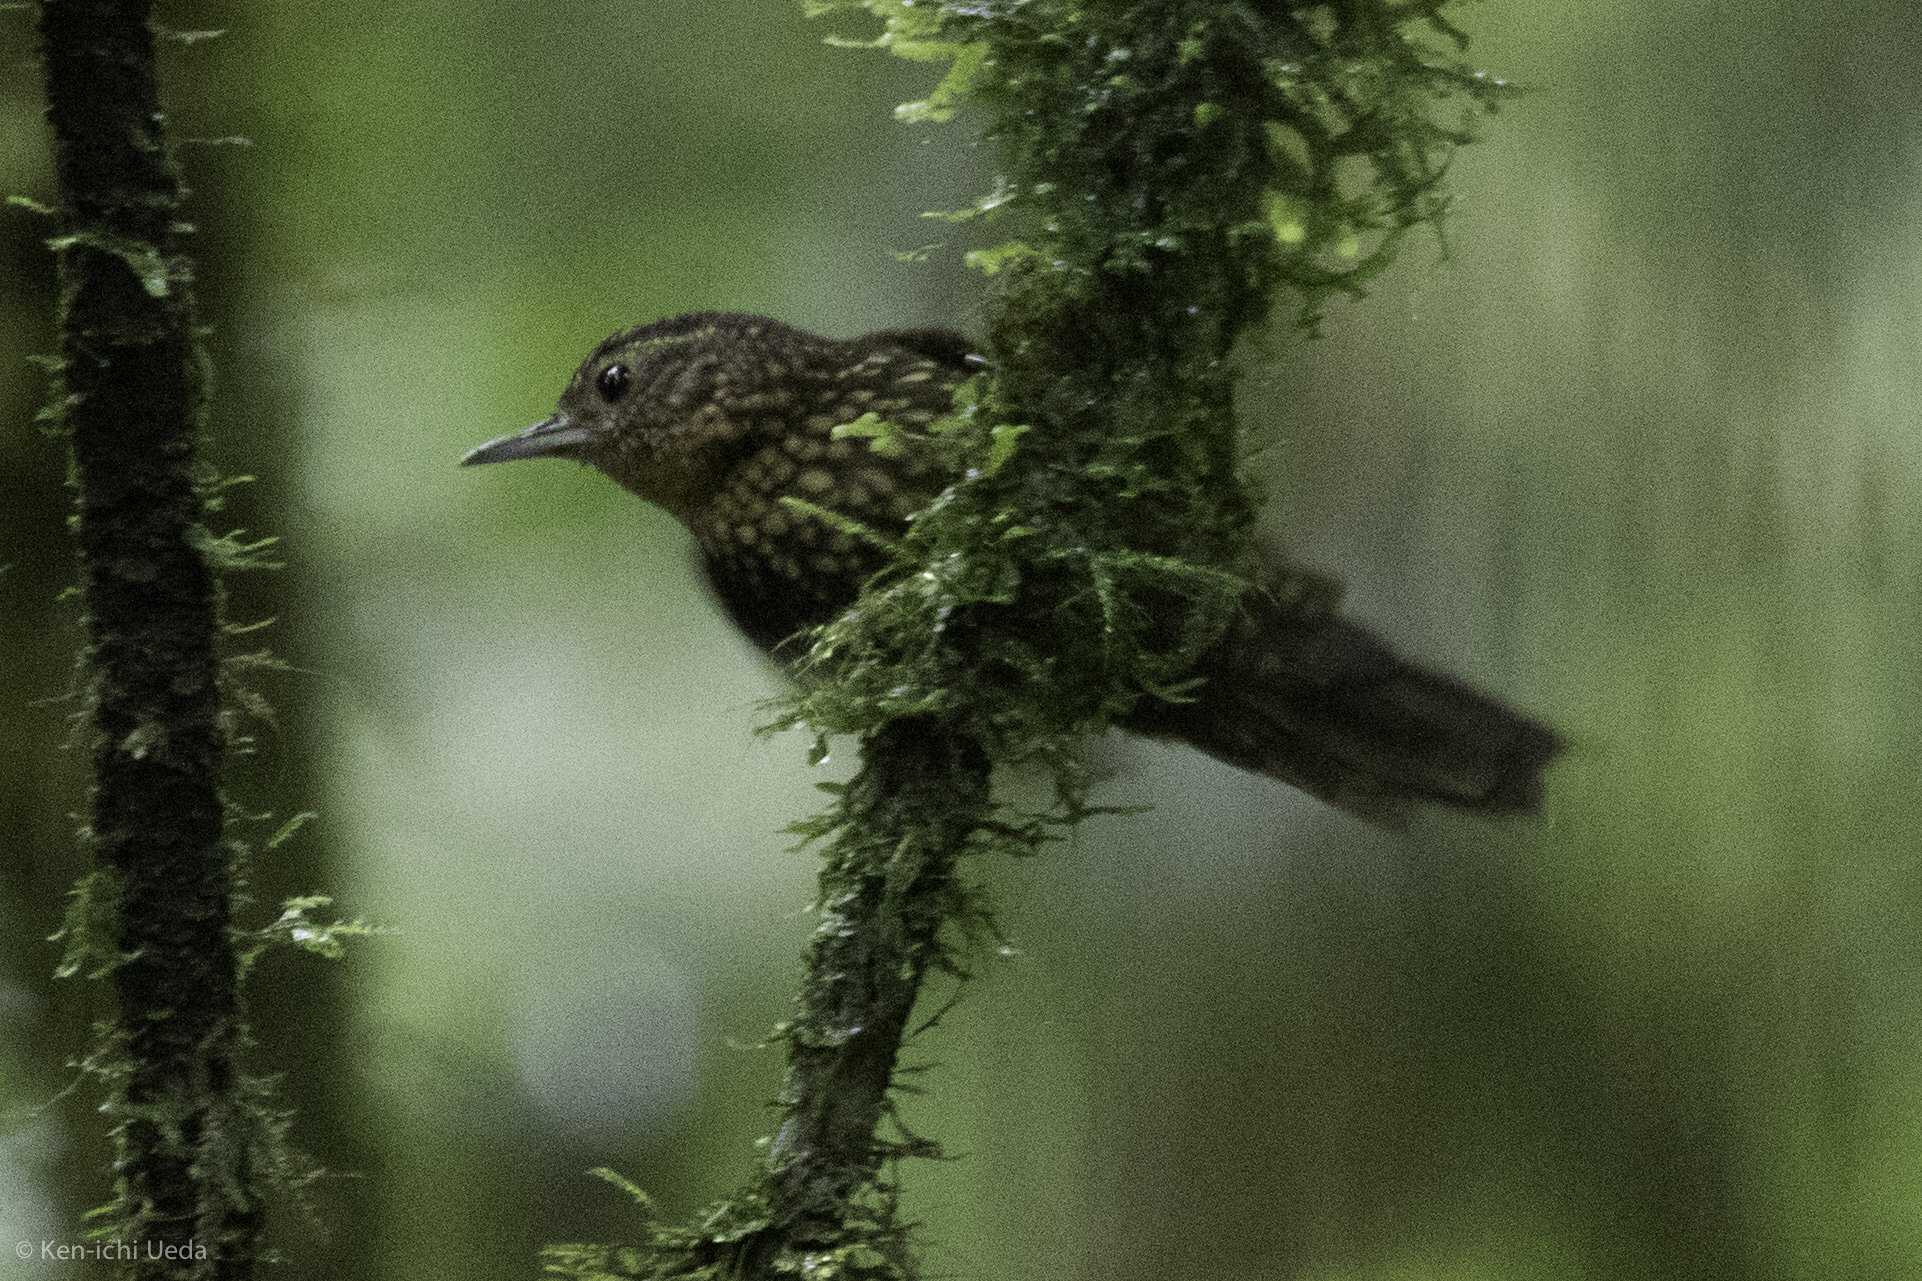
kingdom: Animalia
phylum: Chordata
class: Aves
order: Passeriformes
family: Furnariidae
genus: Premnoplex
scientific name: Premnoplex brunnescens
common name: Spotted barbtail
